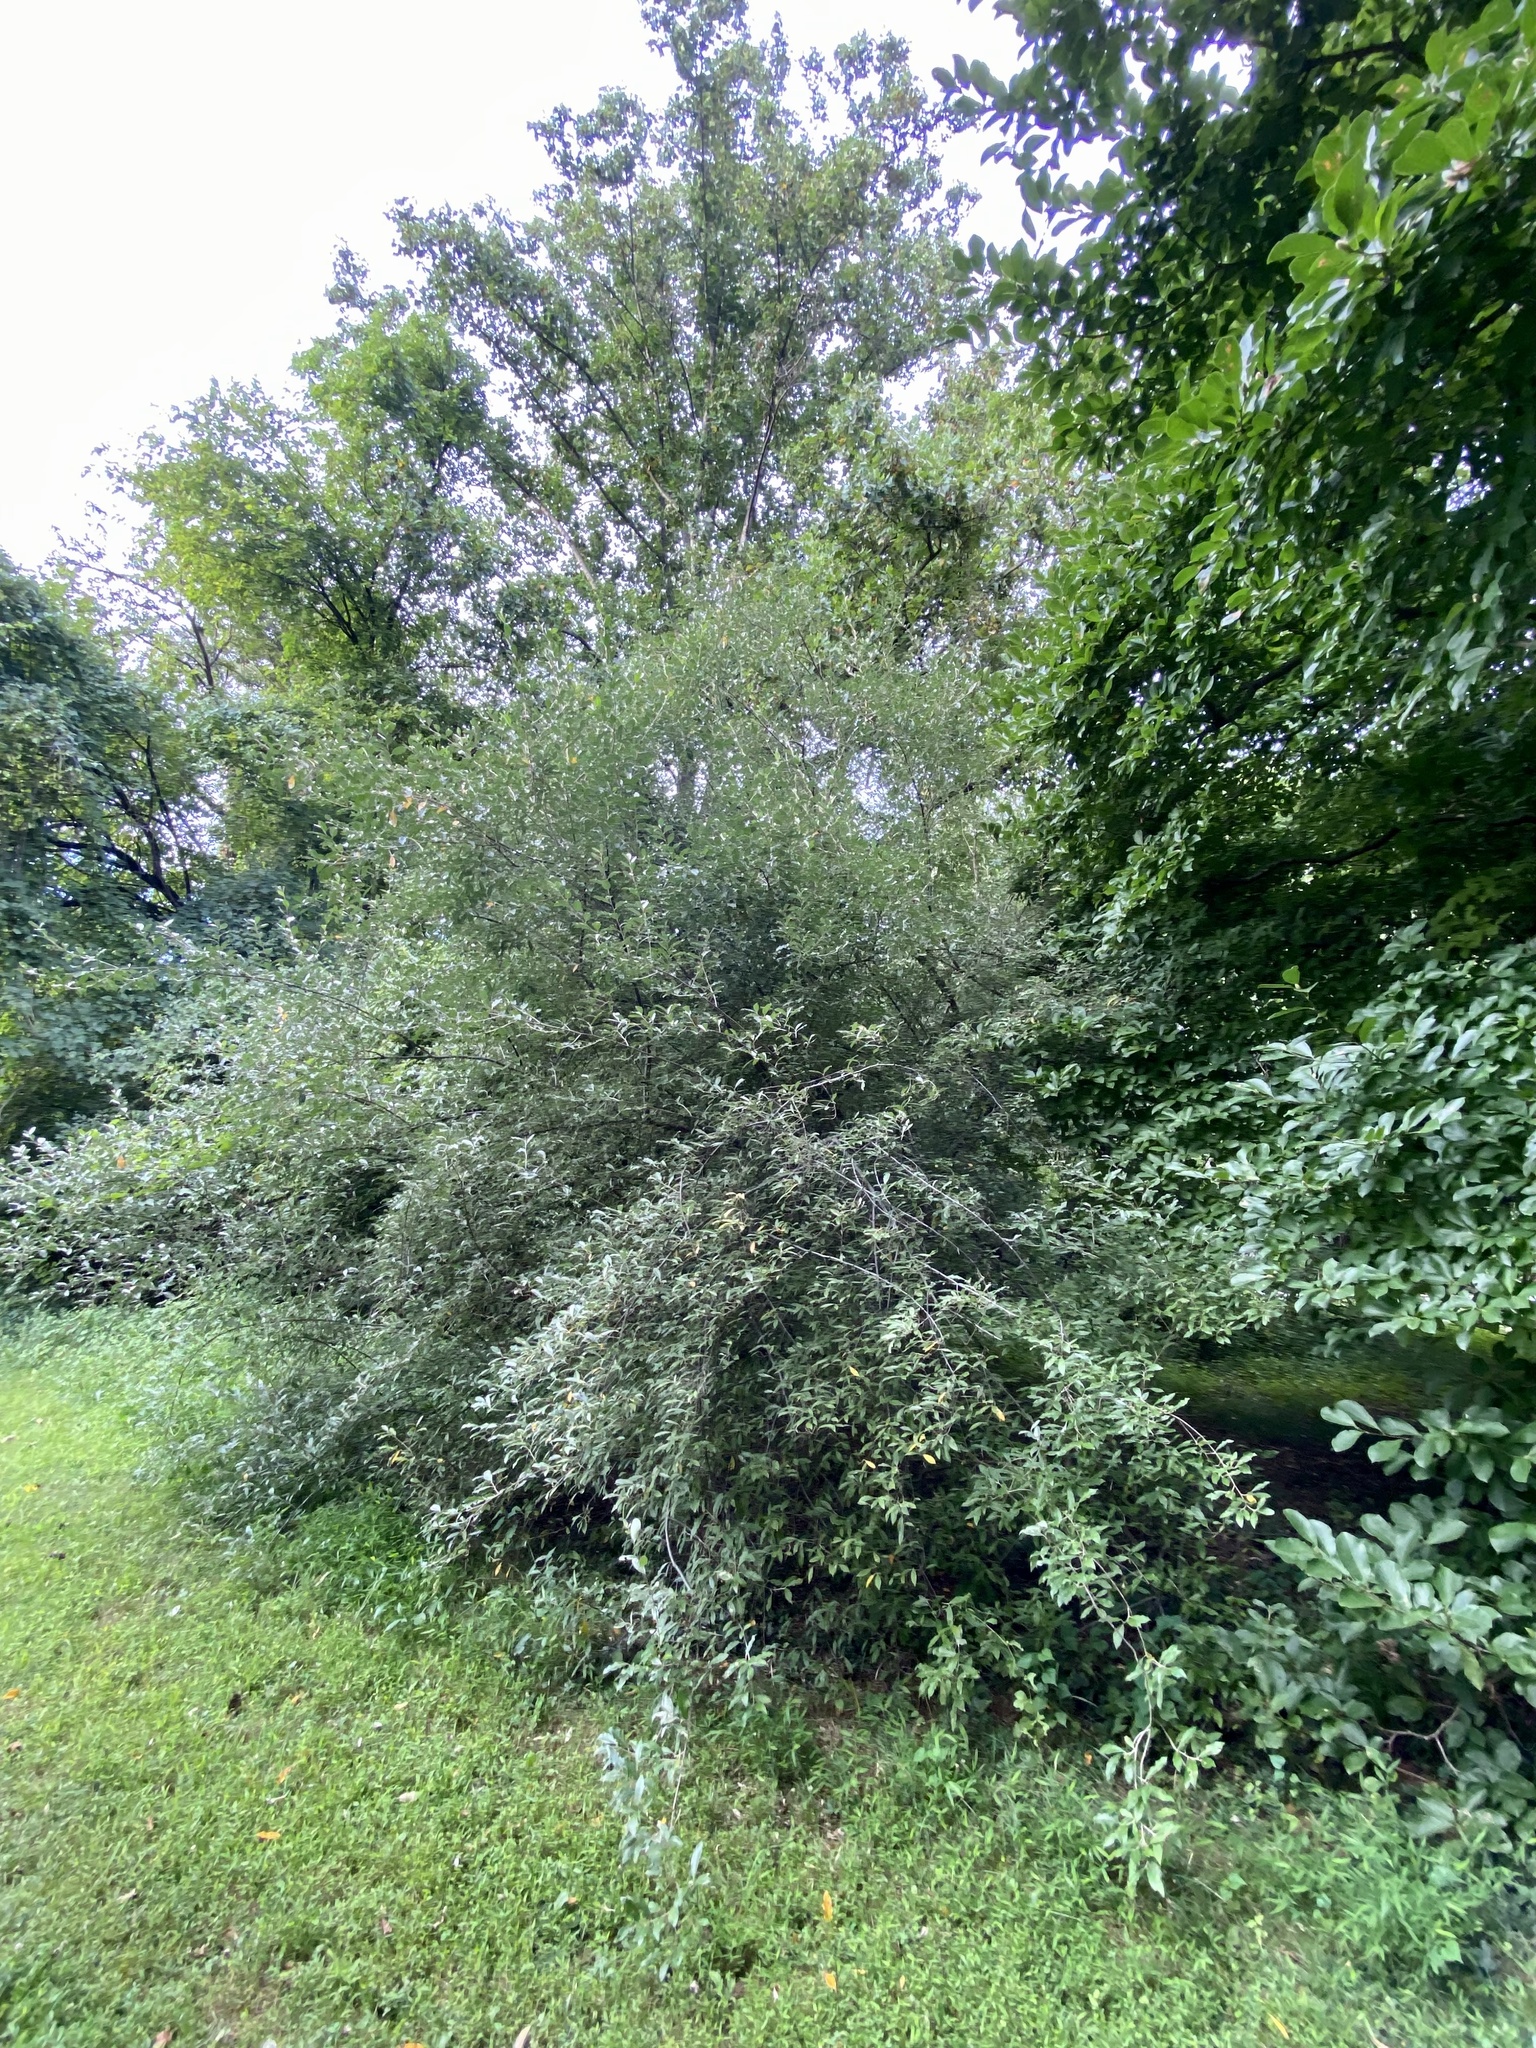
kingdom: Plantae
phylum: Tracheophyta
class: Magnoliopsida
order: Rosales
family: Elaeagnaceae
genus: Elaeagnus
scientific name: Elaeagnus umbellata
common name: Autumn olive
